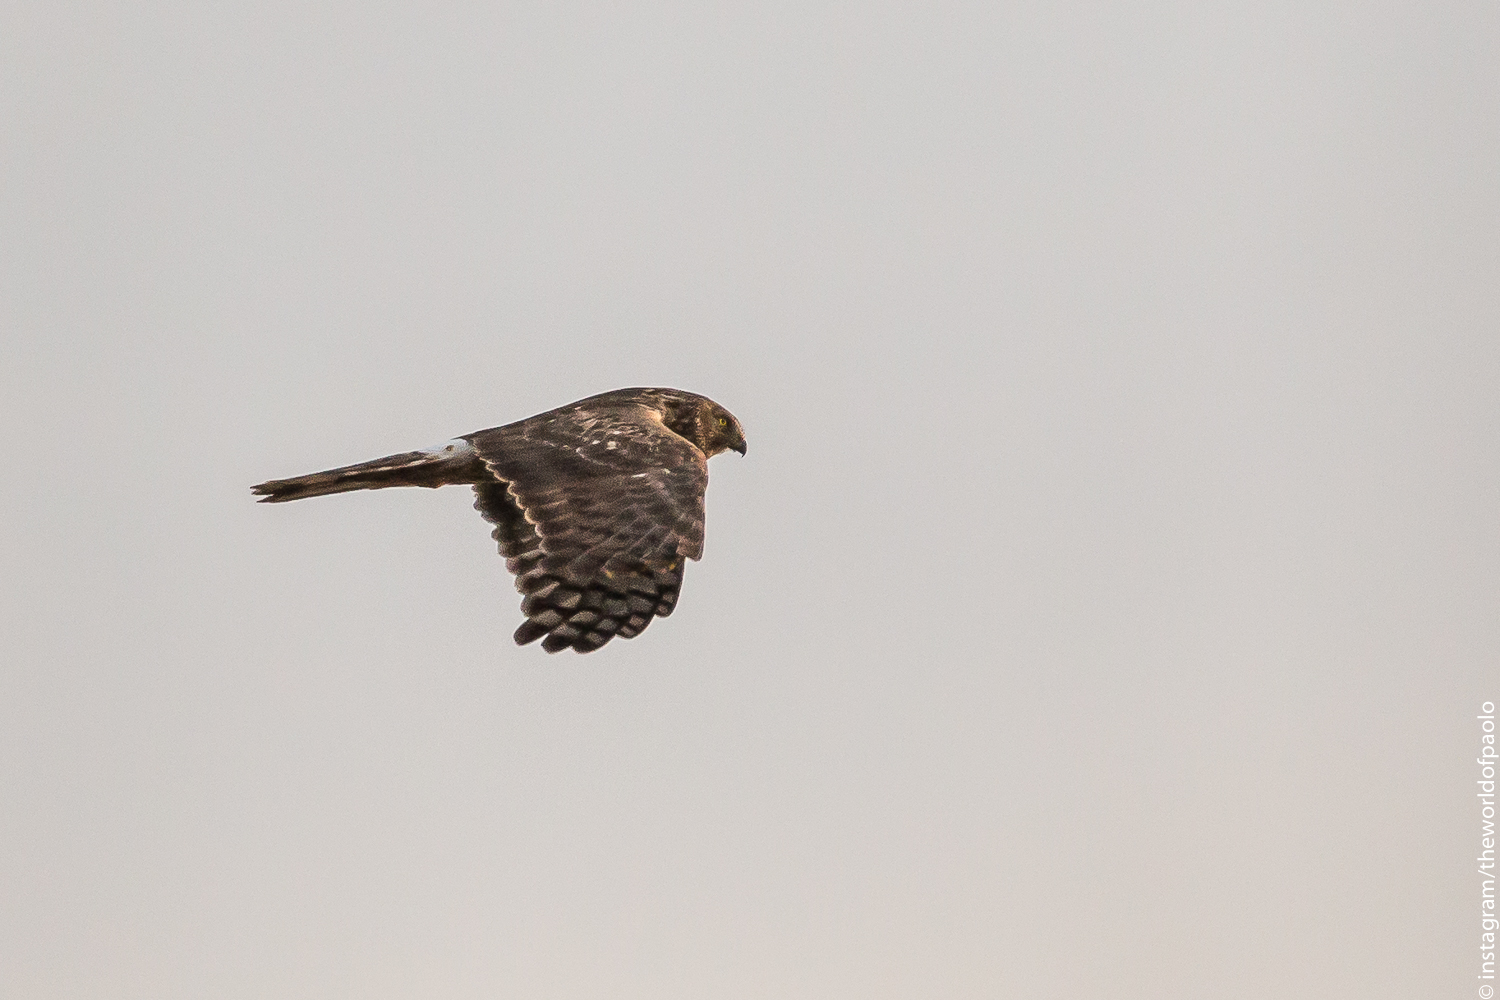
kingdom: Animalia
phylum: Chordata
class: Aves
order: Accipitriformes
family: Accipitridae
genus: Circus
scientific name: Circus cyaneus
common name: Hen harrier
